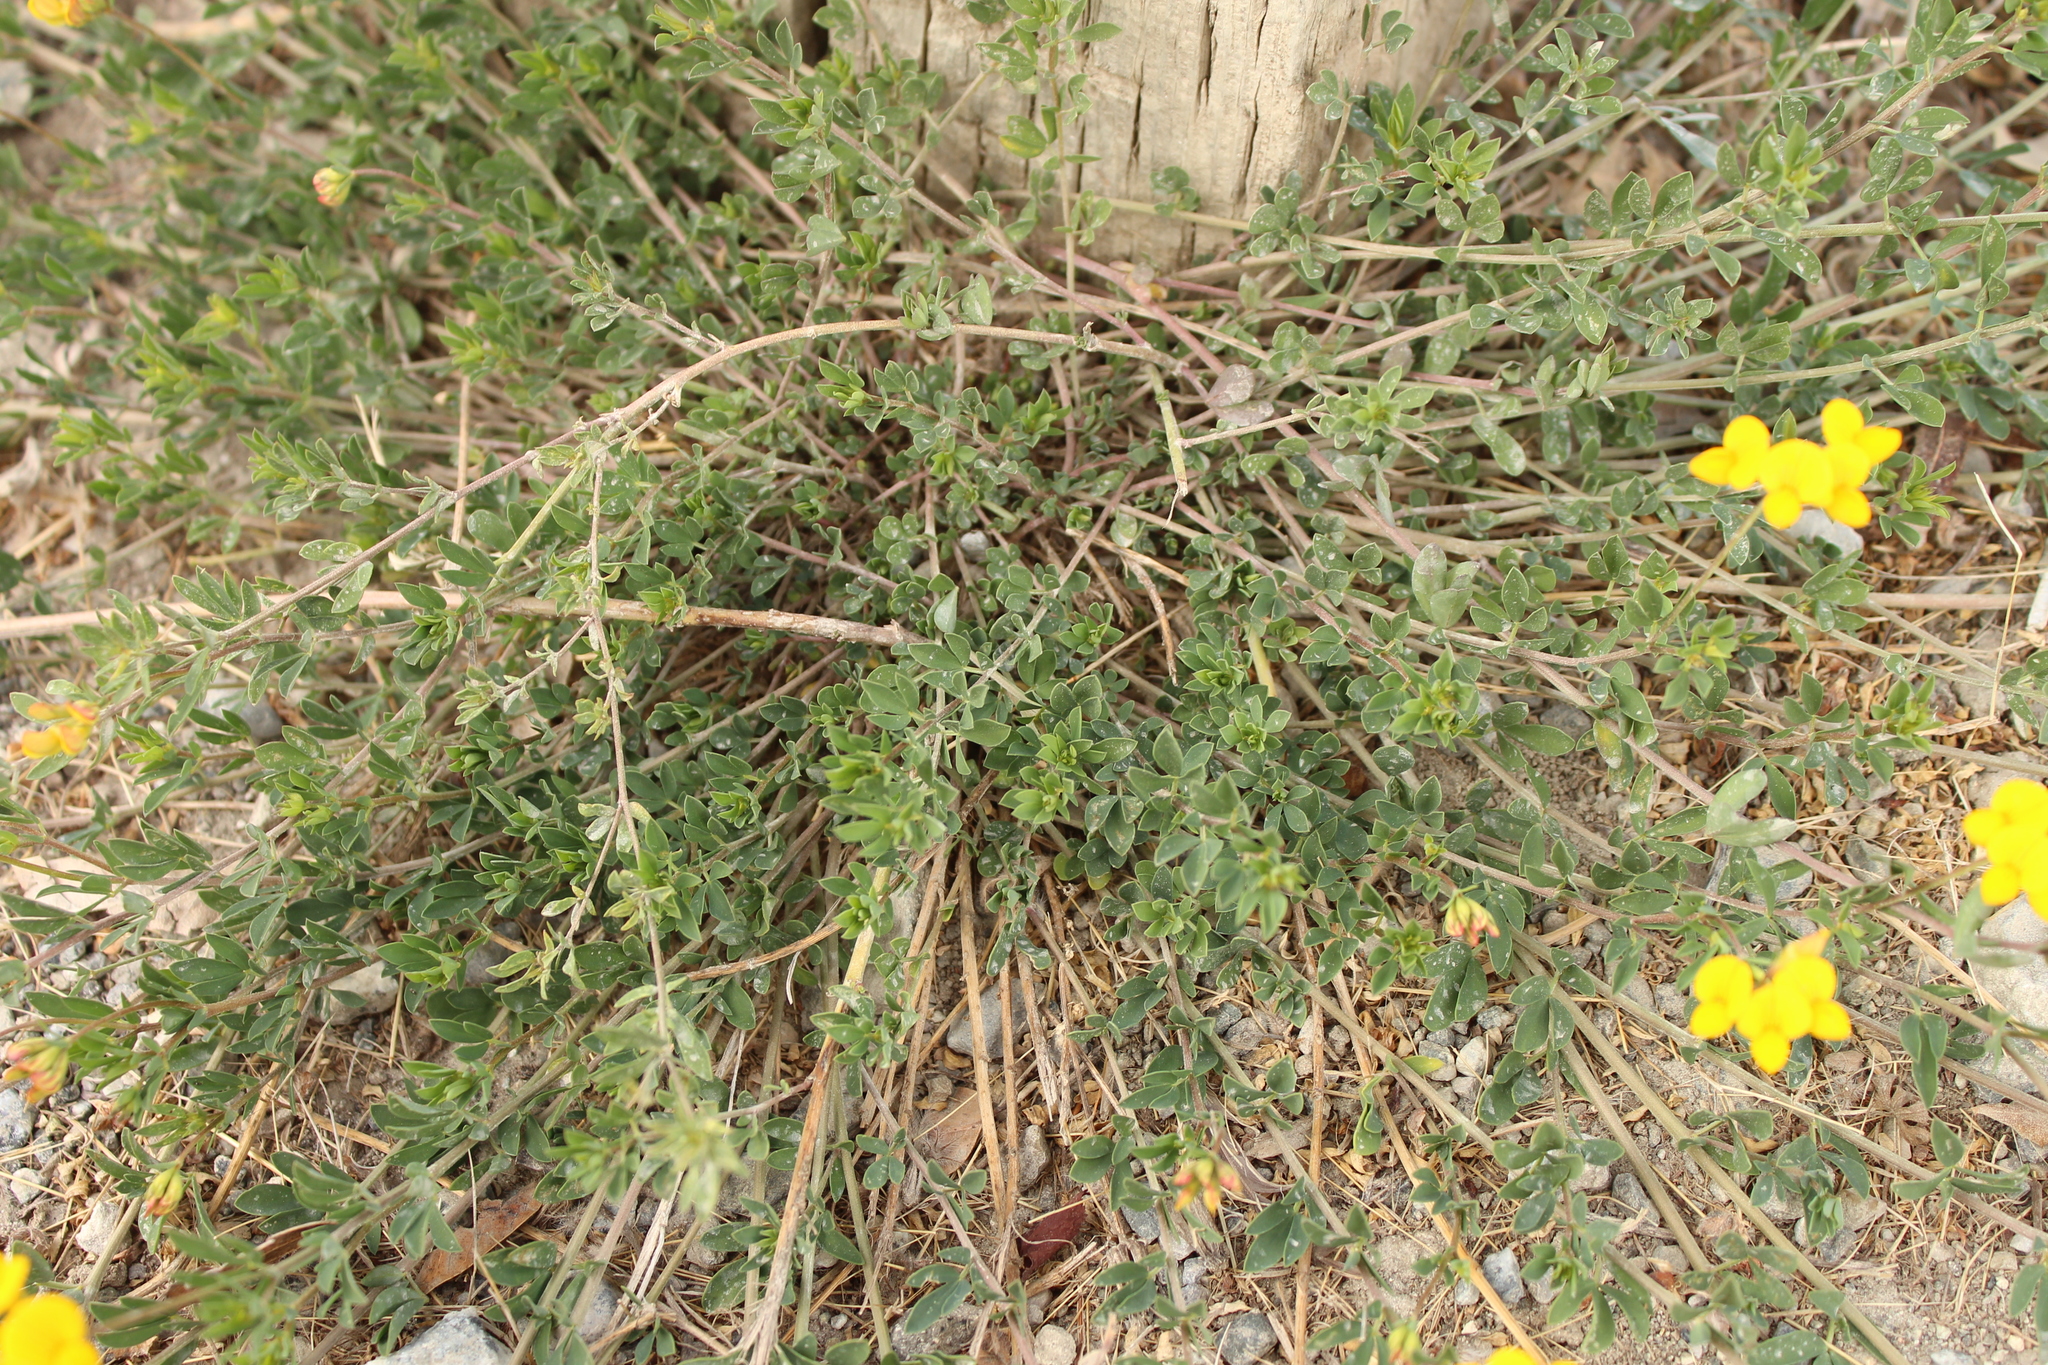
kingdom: Plantae
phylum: Tracheophyta
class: Magnoliopsida
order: Fabales
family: Fabaceae
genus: Lotus
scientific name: Lotus corniculatus
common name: Common bird's-foot-trefoil
